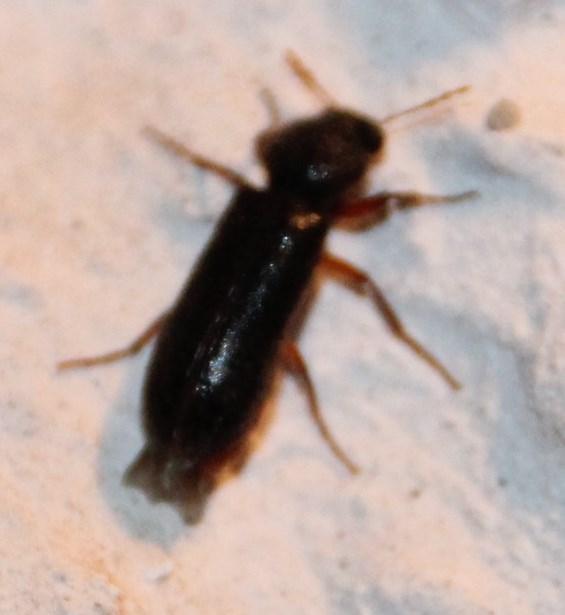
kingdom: Animalia
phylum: Arthropoda
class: Insecta
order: Coleoptera
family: Bostrichidae
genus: Heteropsoa
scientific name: Heteropsoa australis
